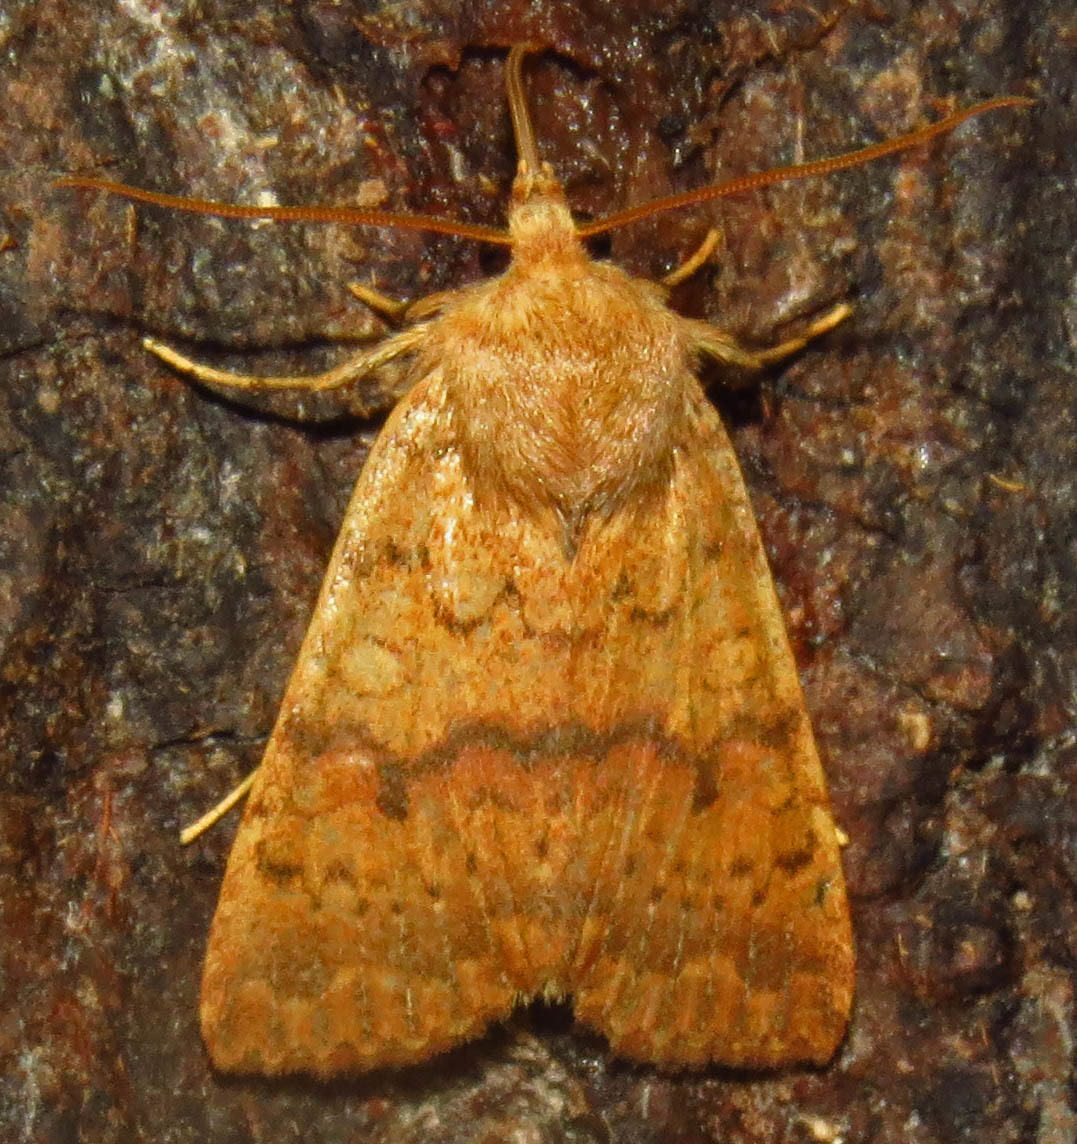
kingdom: Animalia
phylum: Arthropoda
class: Insecta
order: Lepidoptera
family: Noctuidae
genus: Agrochola
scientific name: Agrochola bicolorago
